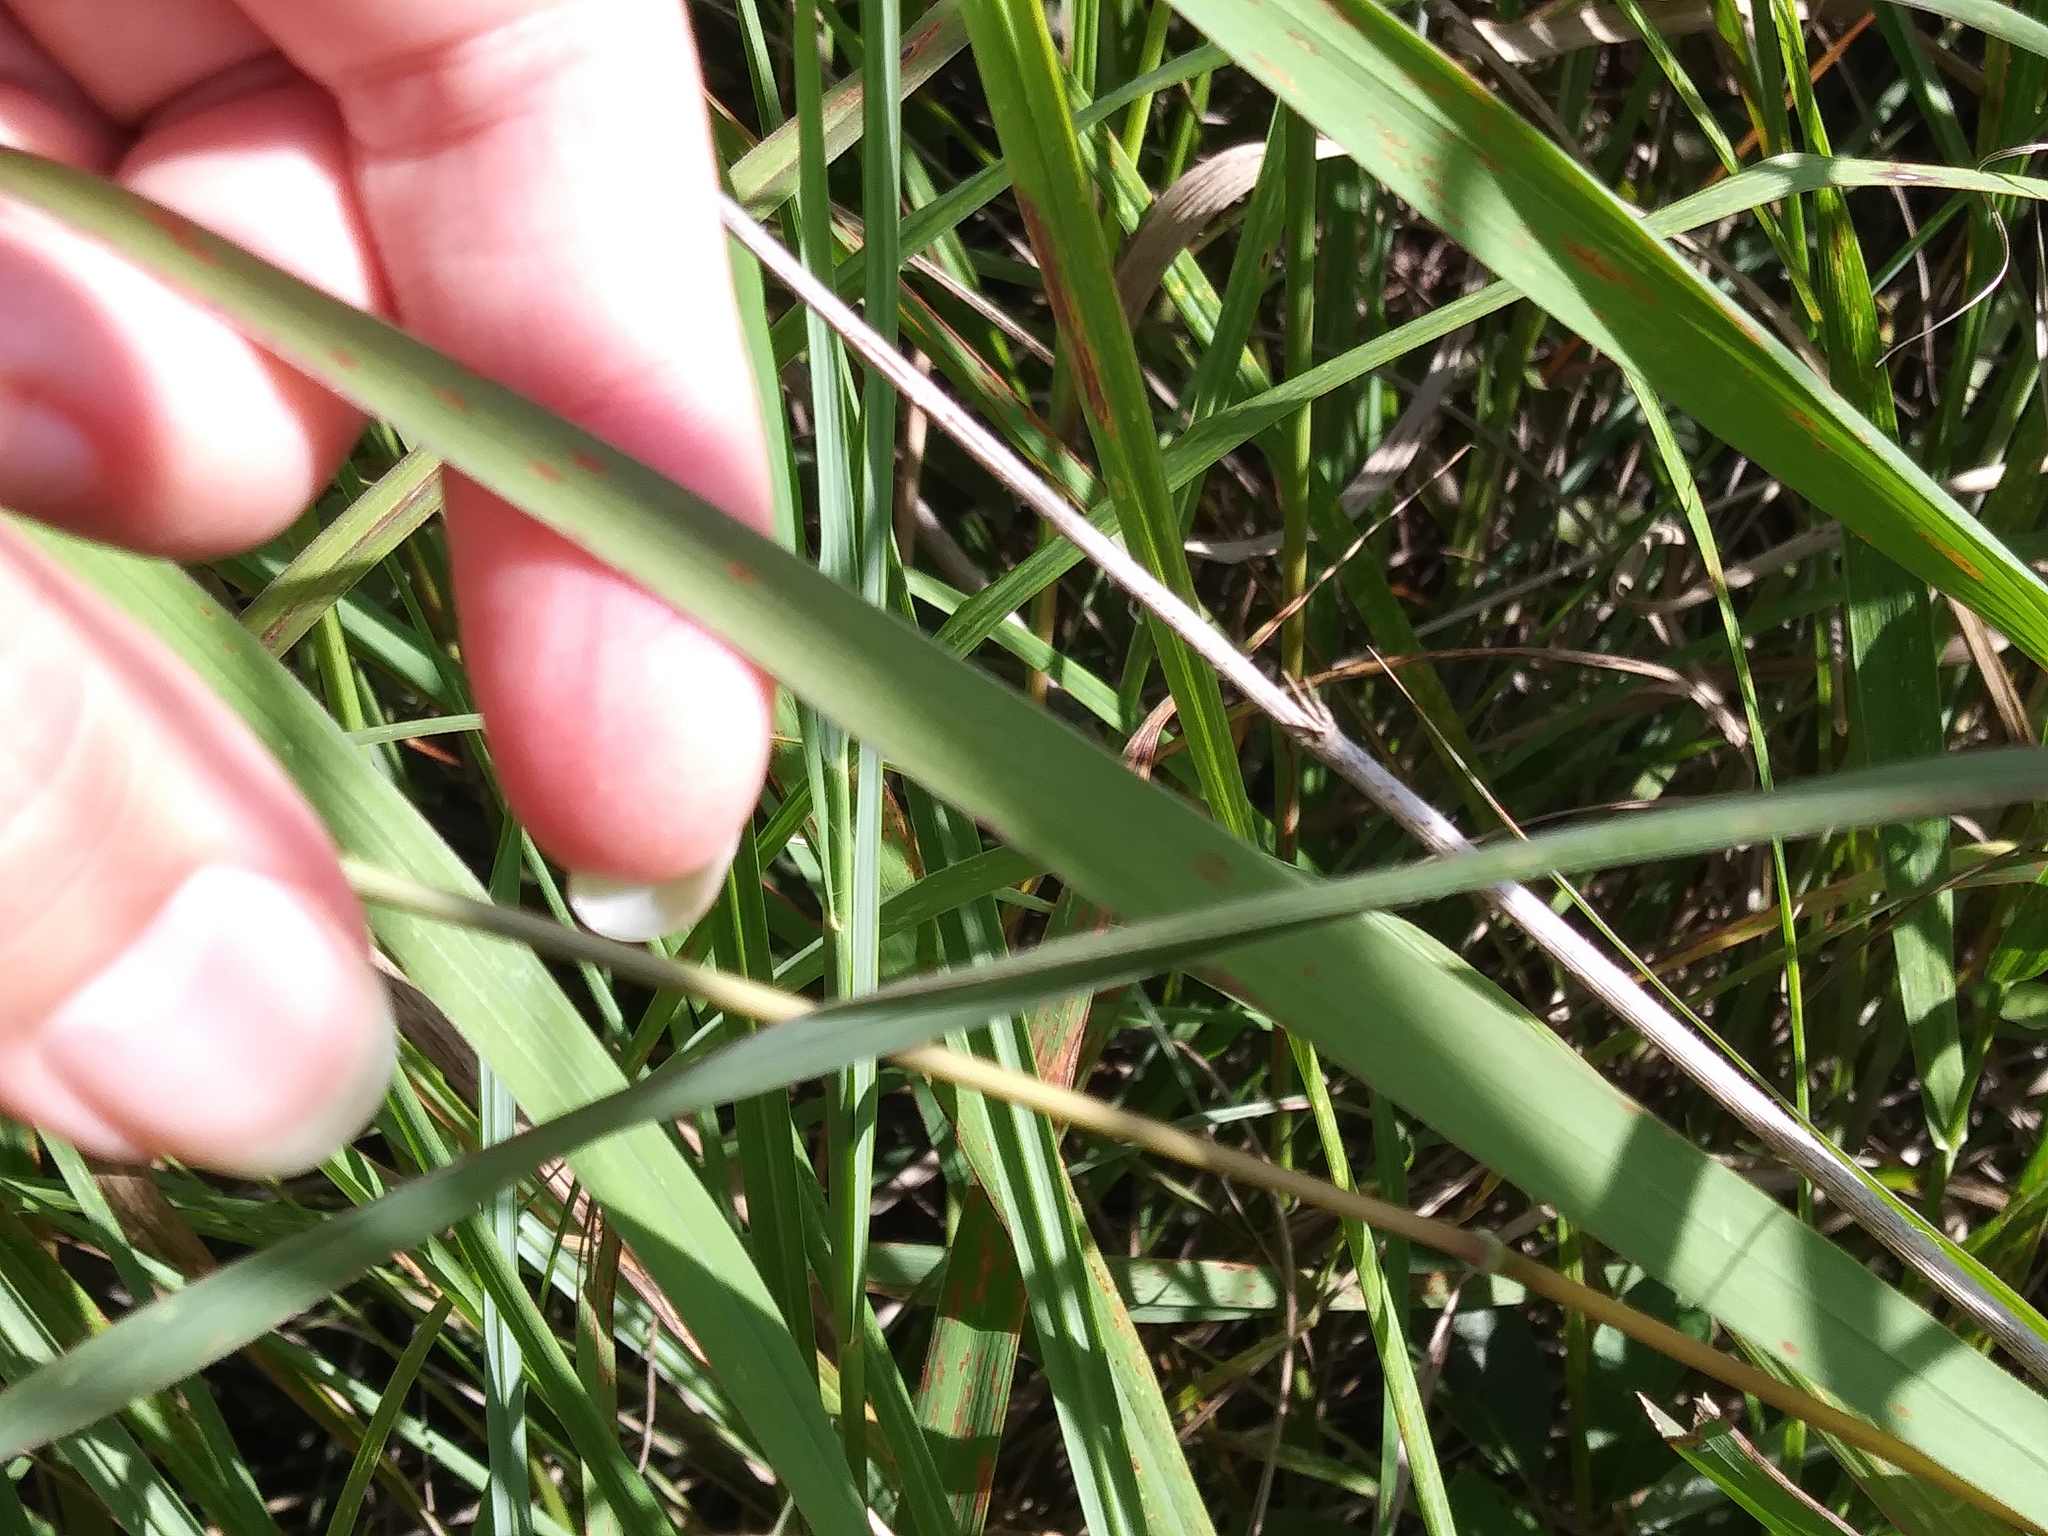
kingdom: Plantae
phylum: Tracheophyta
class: Liliopsida
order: Poales
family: Poaceae
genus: Sorghastrum
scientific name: Sorghastrum nutans
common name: Indian grass
